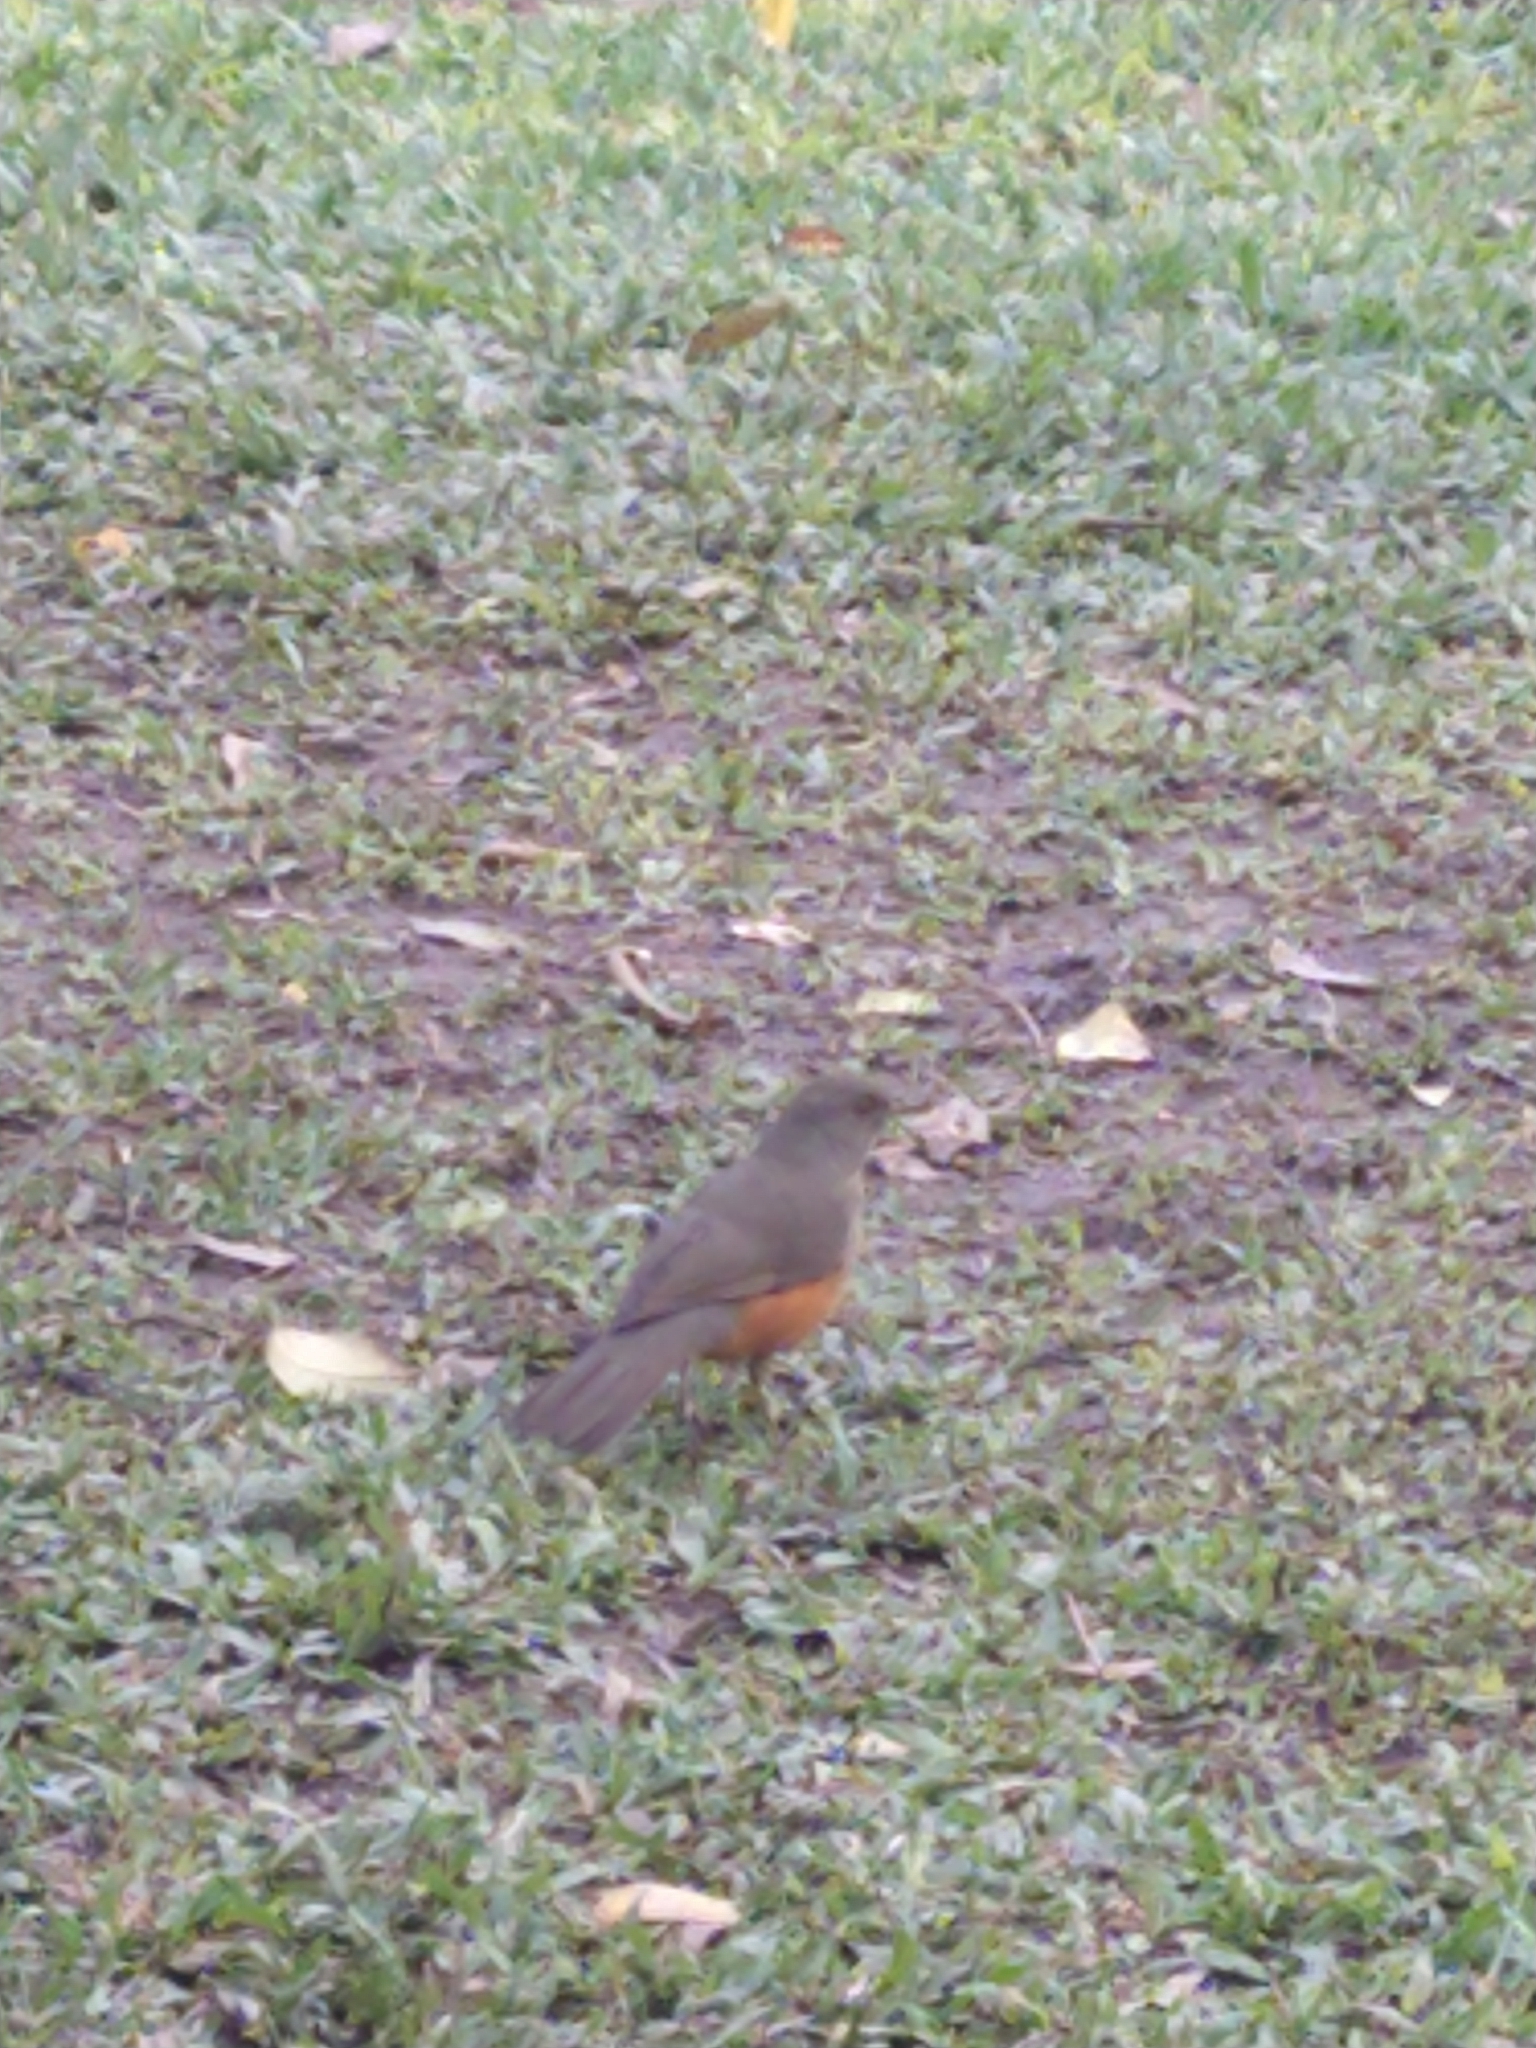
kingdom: Animalia
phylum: Chordata
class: Aves
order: Passeriformes
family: Turdidae
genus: Turdus
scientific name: Turdus rufiventris
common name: Rufous-bellied thrush
